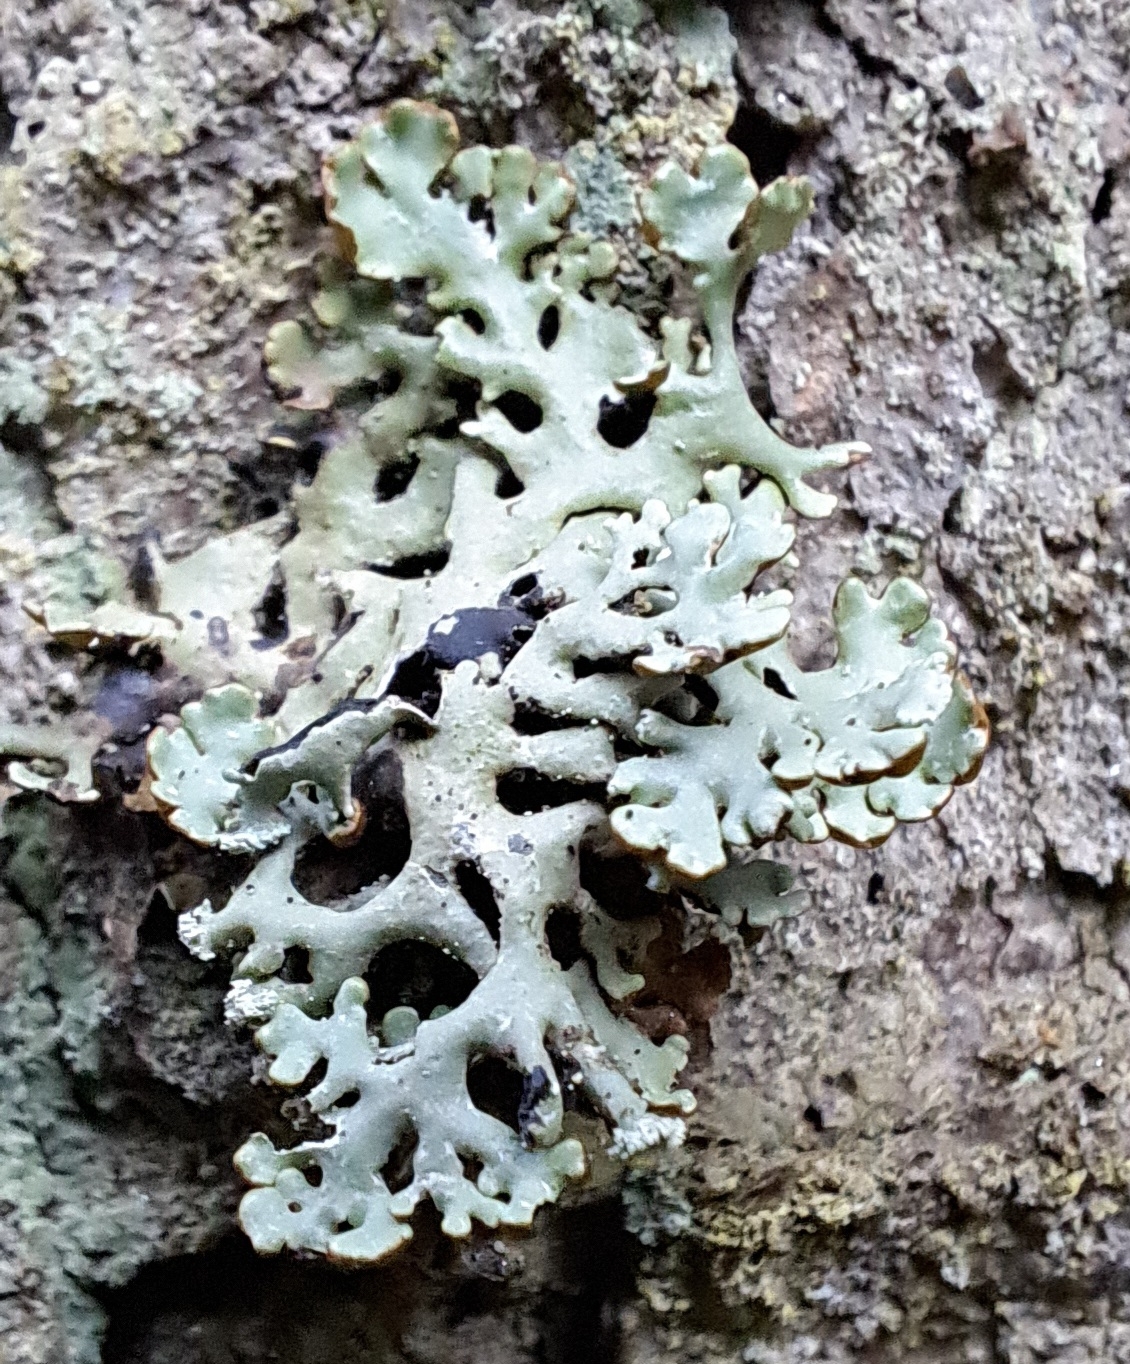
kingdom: Fungi
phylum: Ascomycota
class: Lecanoromycetes
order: Lecanorales
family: Parmeliaceae
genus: Hypogymnia
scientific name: Hypogymnia physodes
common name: Dark crottle
